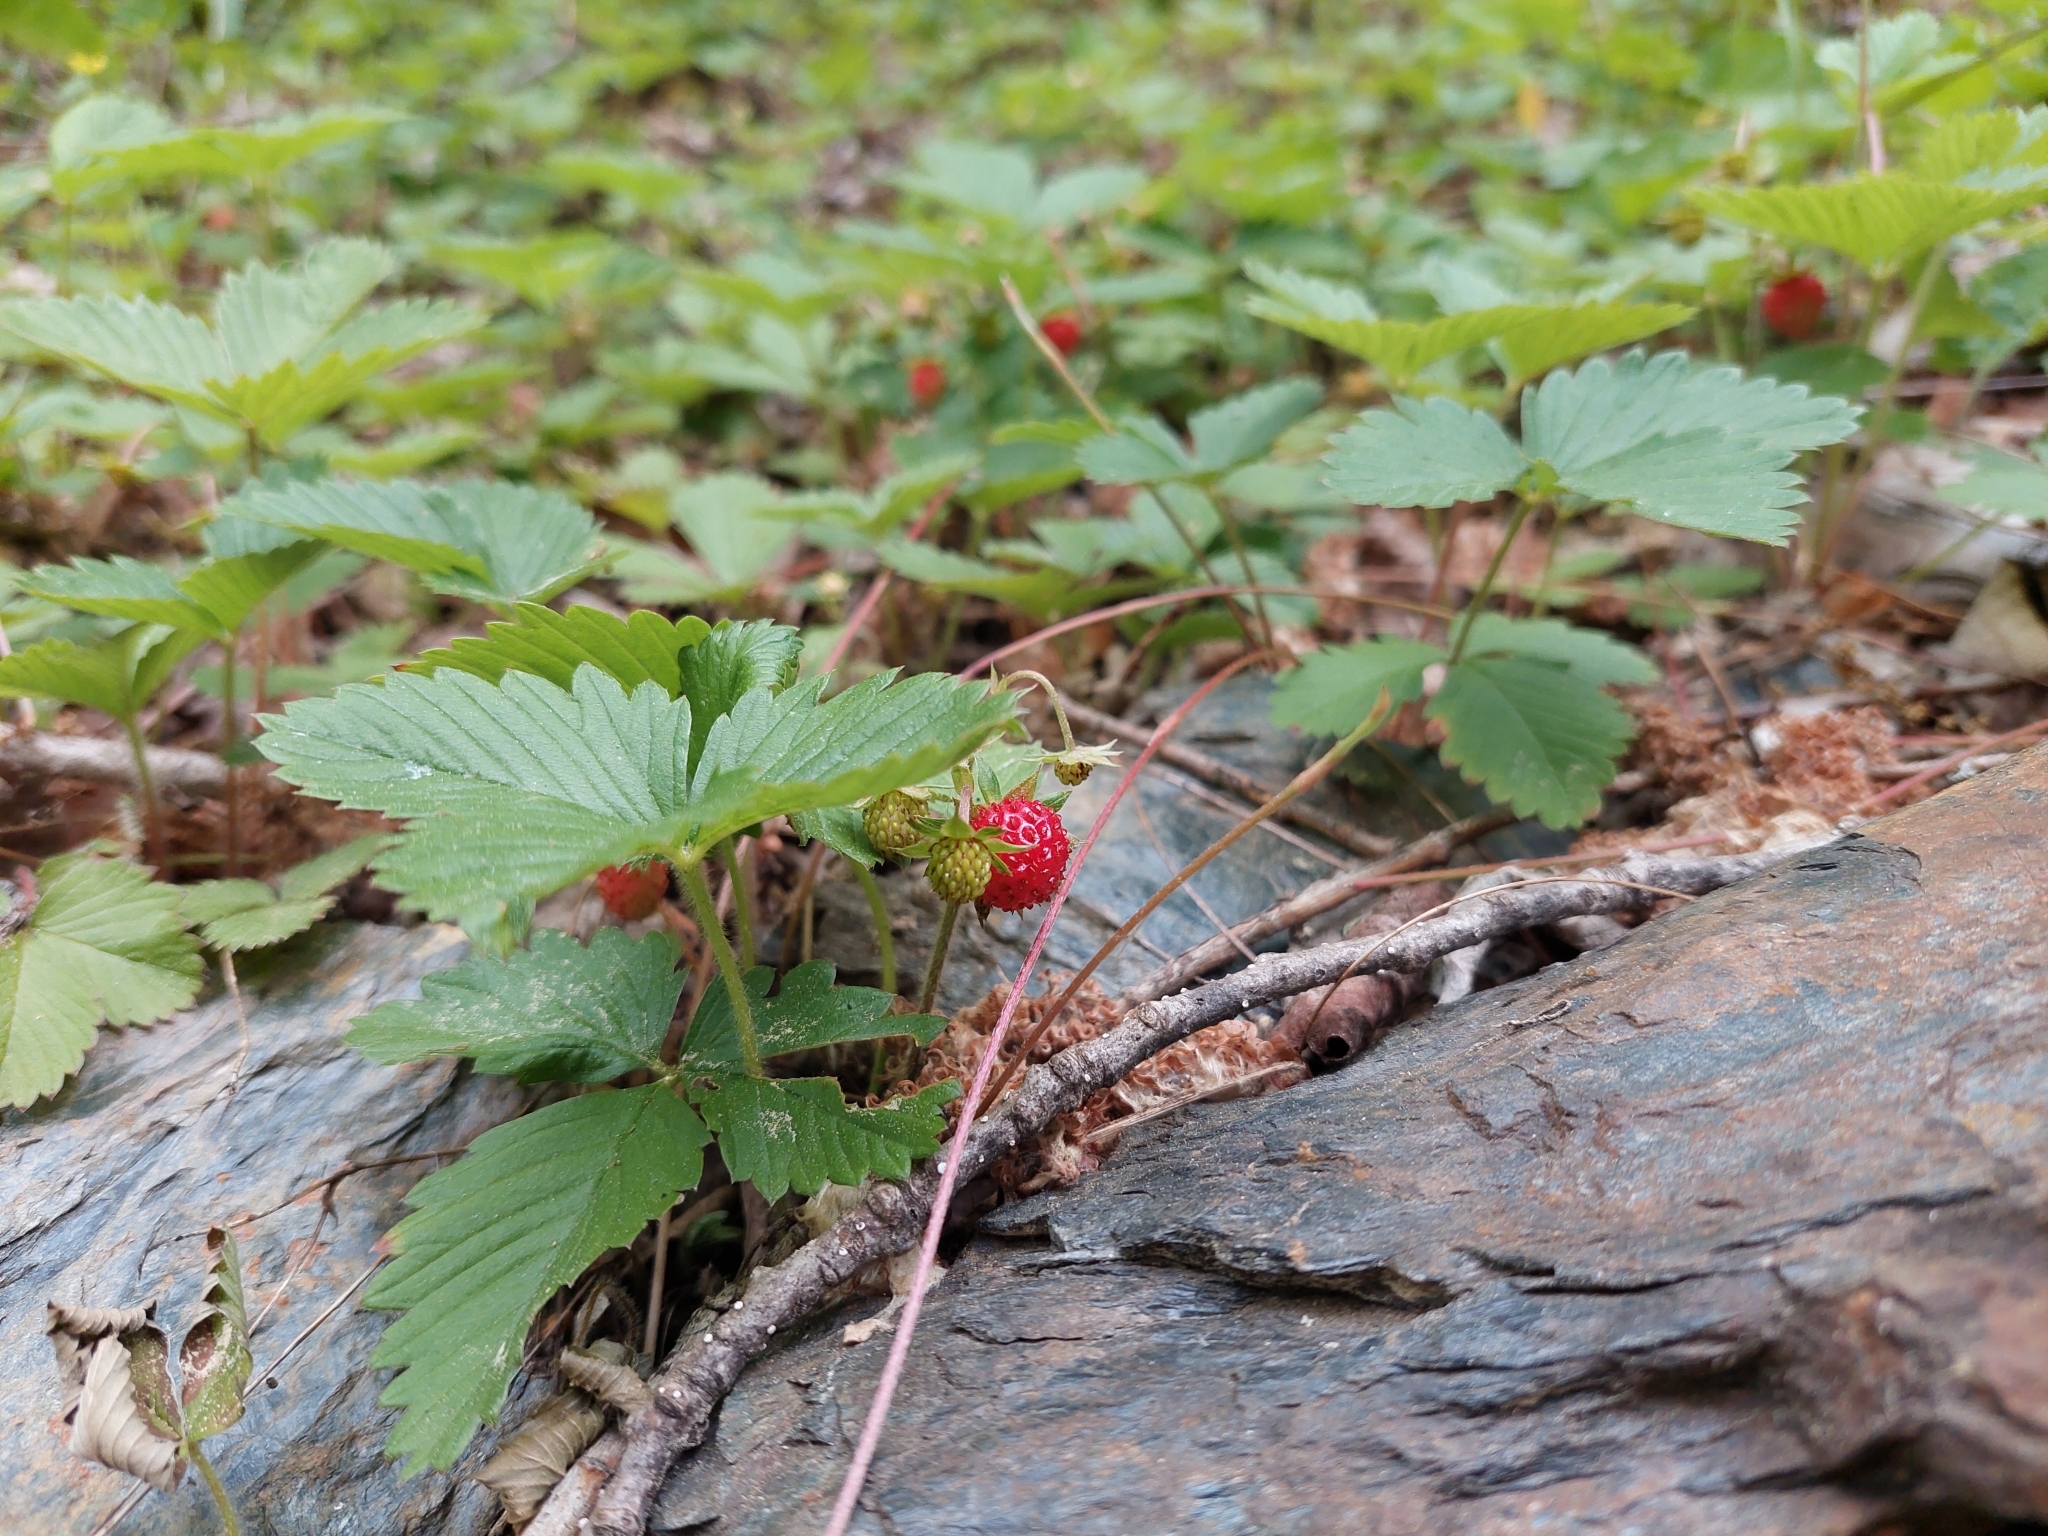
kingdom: Plantae
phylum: Tracheophyta
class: Magnoliopsida
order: Rosales
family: Rosaceae
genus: Fragaria
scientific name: Fragaria vesca
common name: Wild strawberry
